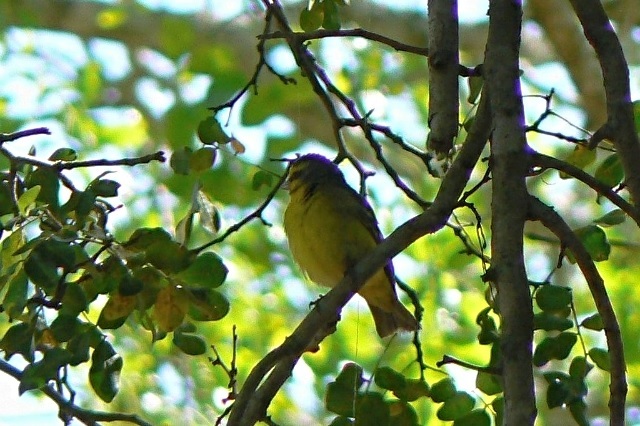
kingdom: Animalia
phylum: Chordata
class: Aves
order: Passeriformes
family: Fringillidae
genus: Crithagra
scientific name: Crithagra mozambica
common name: Yellow-fronted canary
